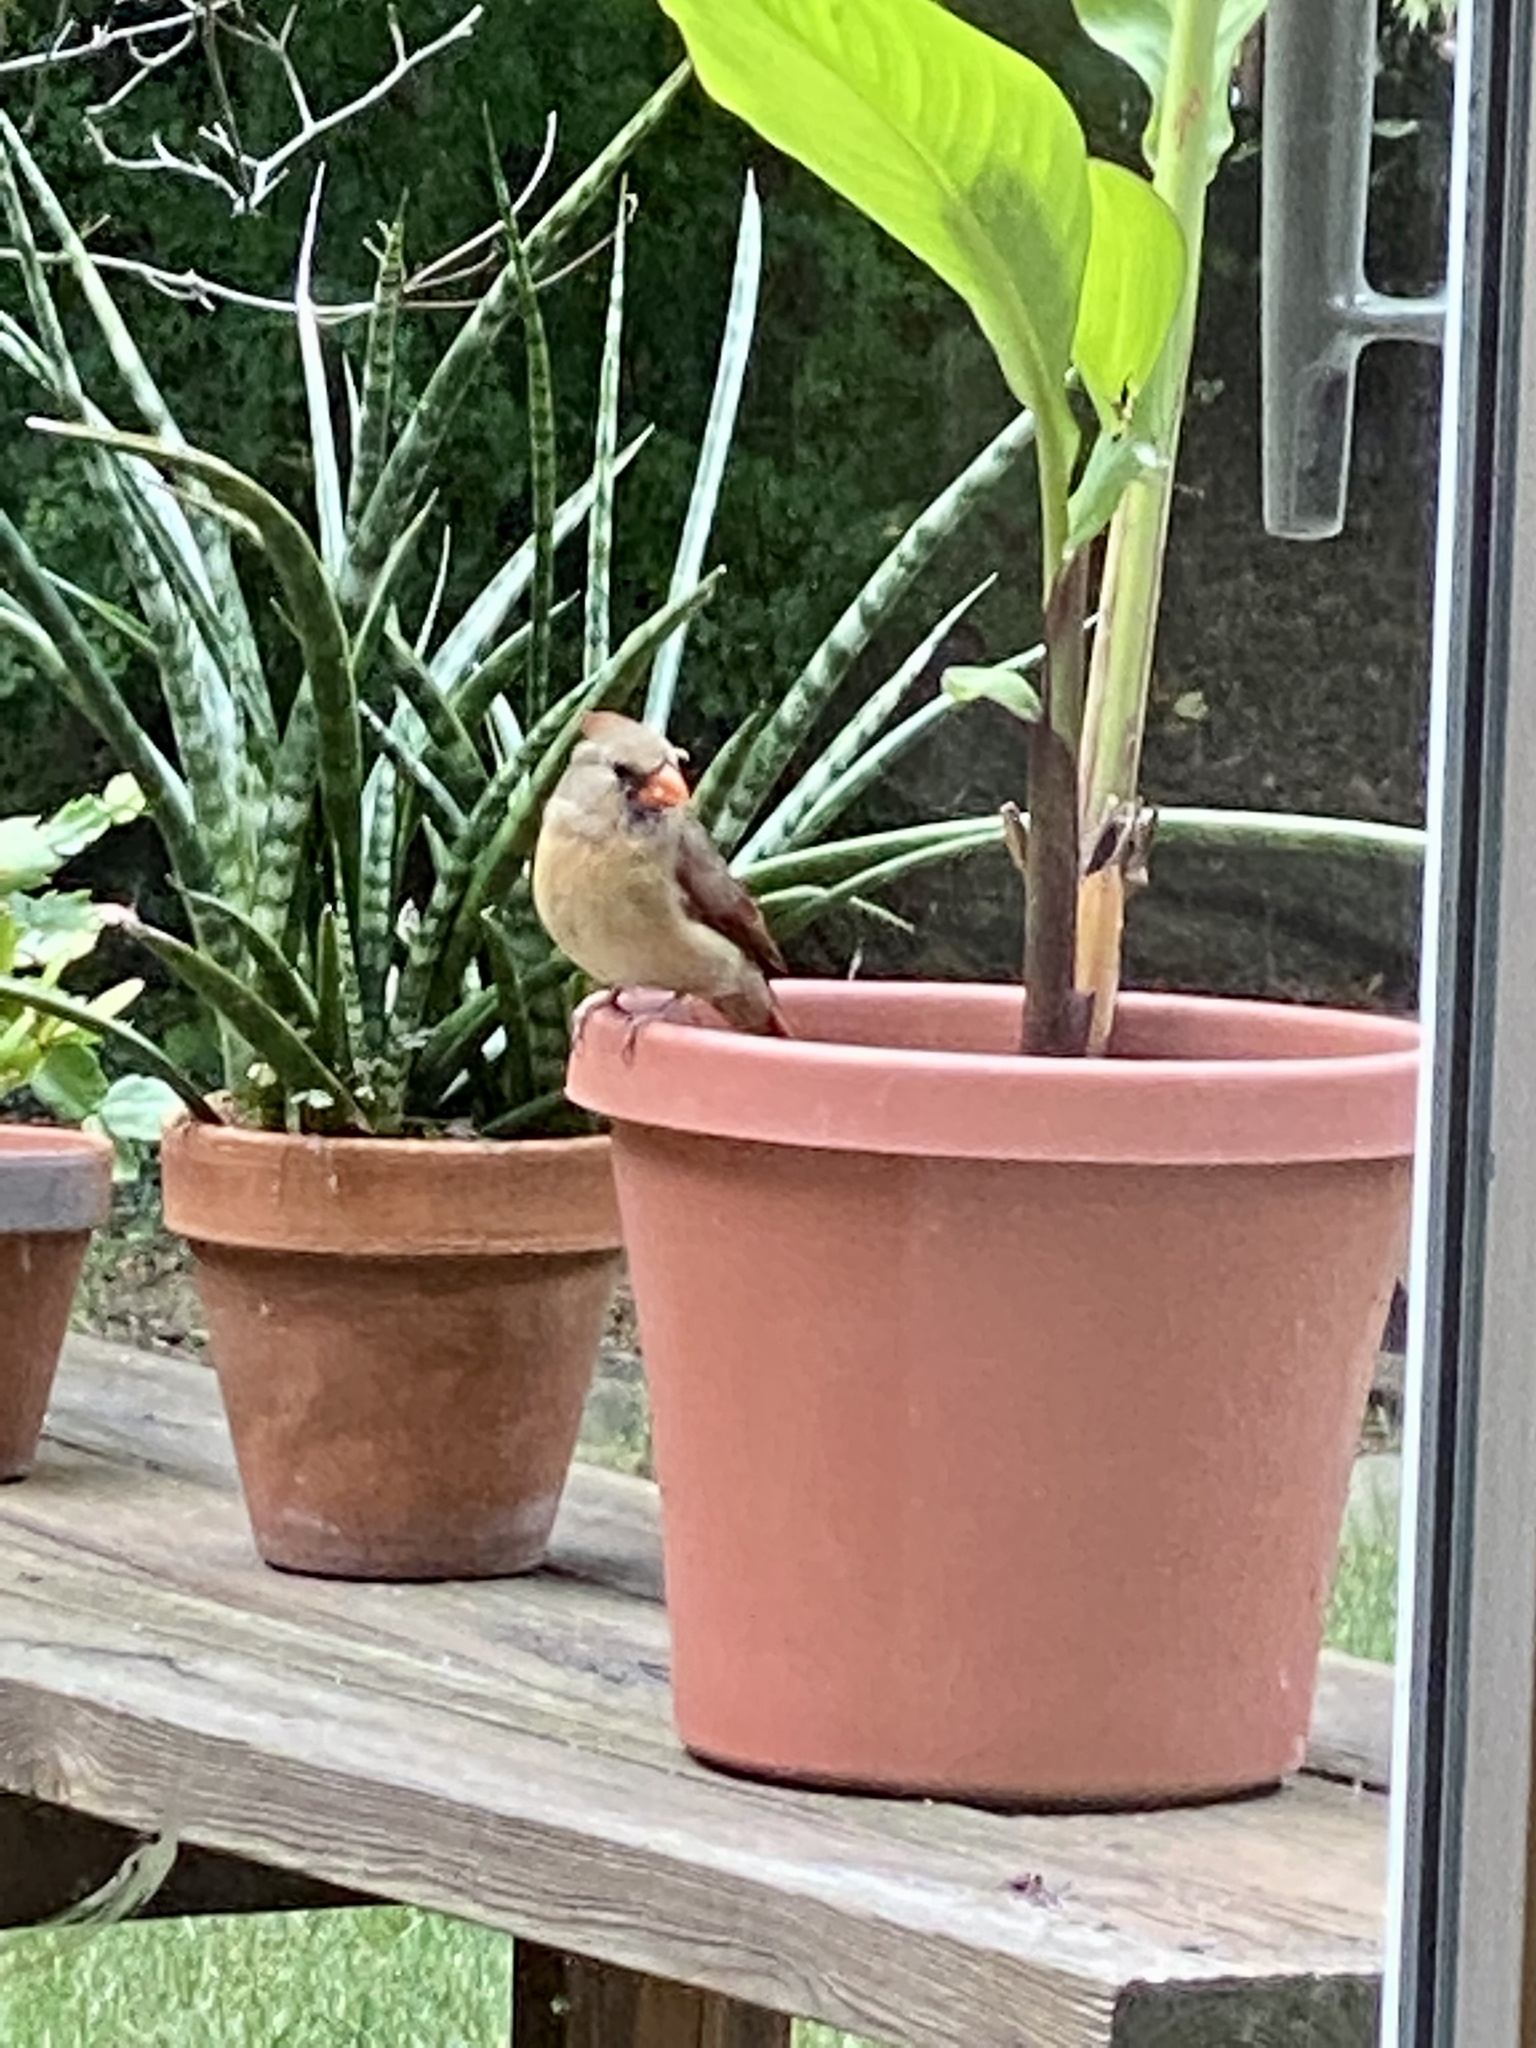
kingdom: Animalia
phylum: Chordata
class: Aves
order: Passeriformes
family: Cardinalidae
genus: Cardinalis
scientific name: Cardinalis cardinalis
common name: Northern cardinal
